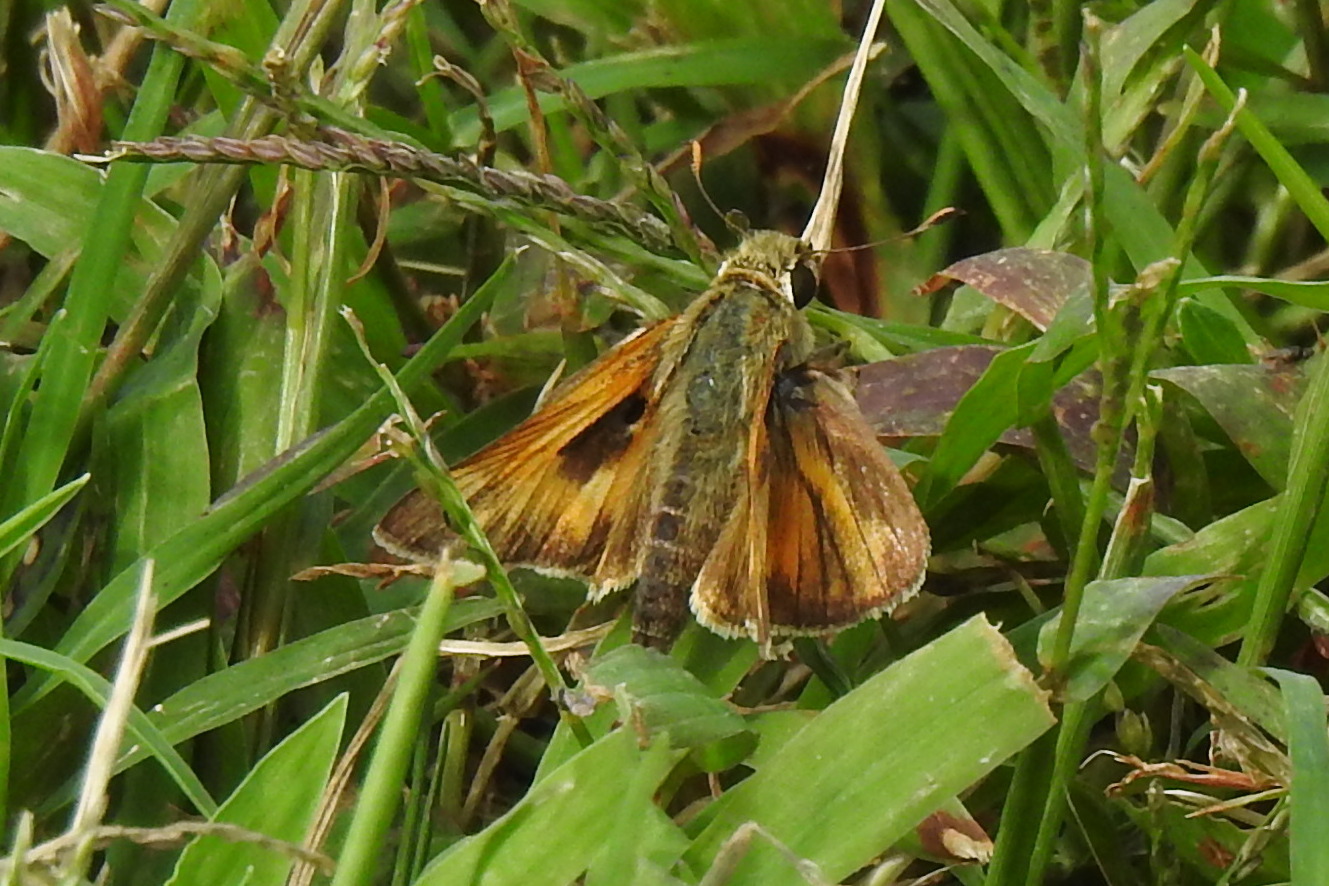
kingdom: Animalia
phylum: Arthropoda
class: Insecta
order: Lepidoptera
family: Hesperiidae
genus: Atalopedes
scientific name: Atalopedes
